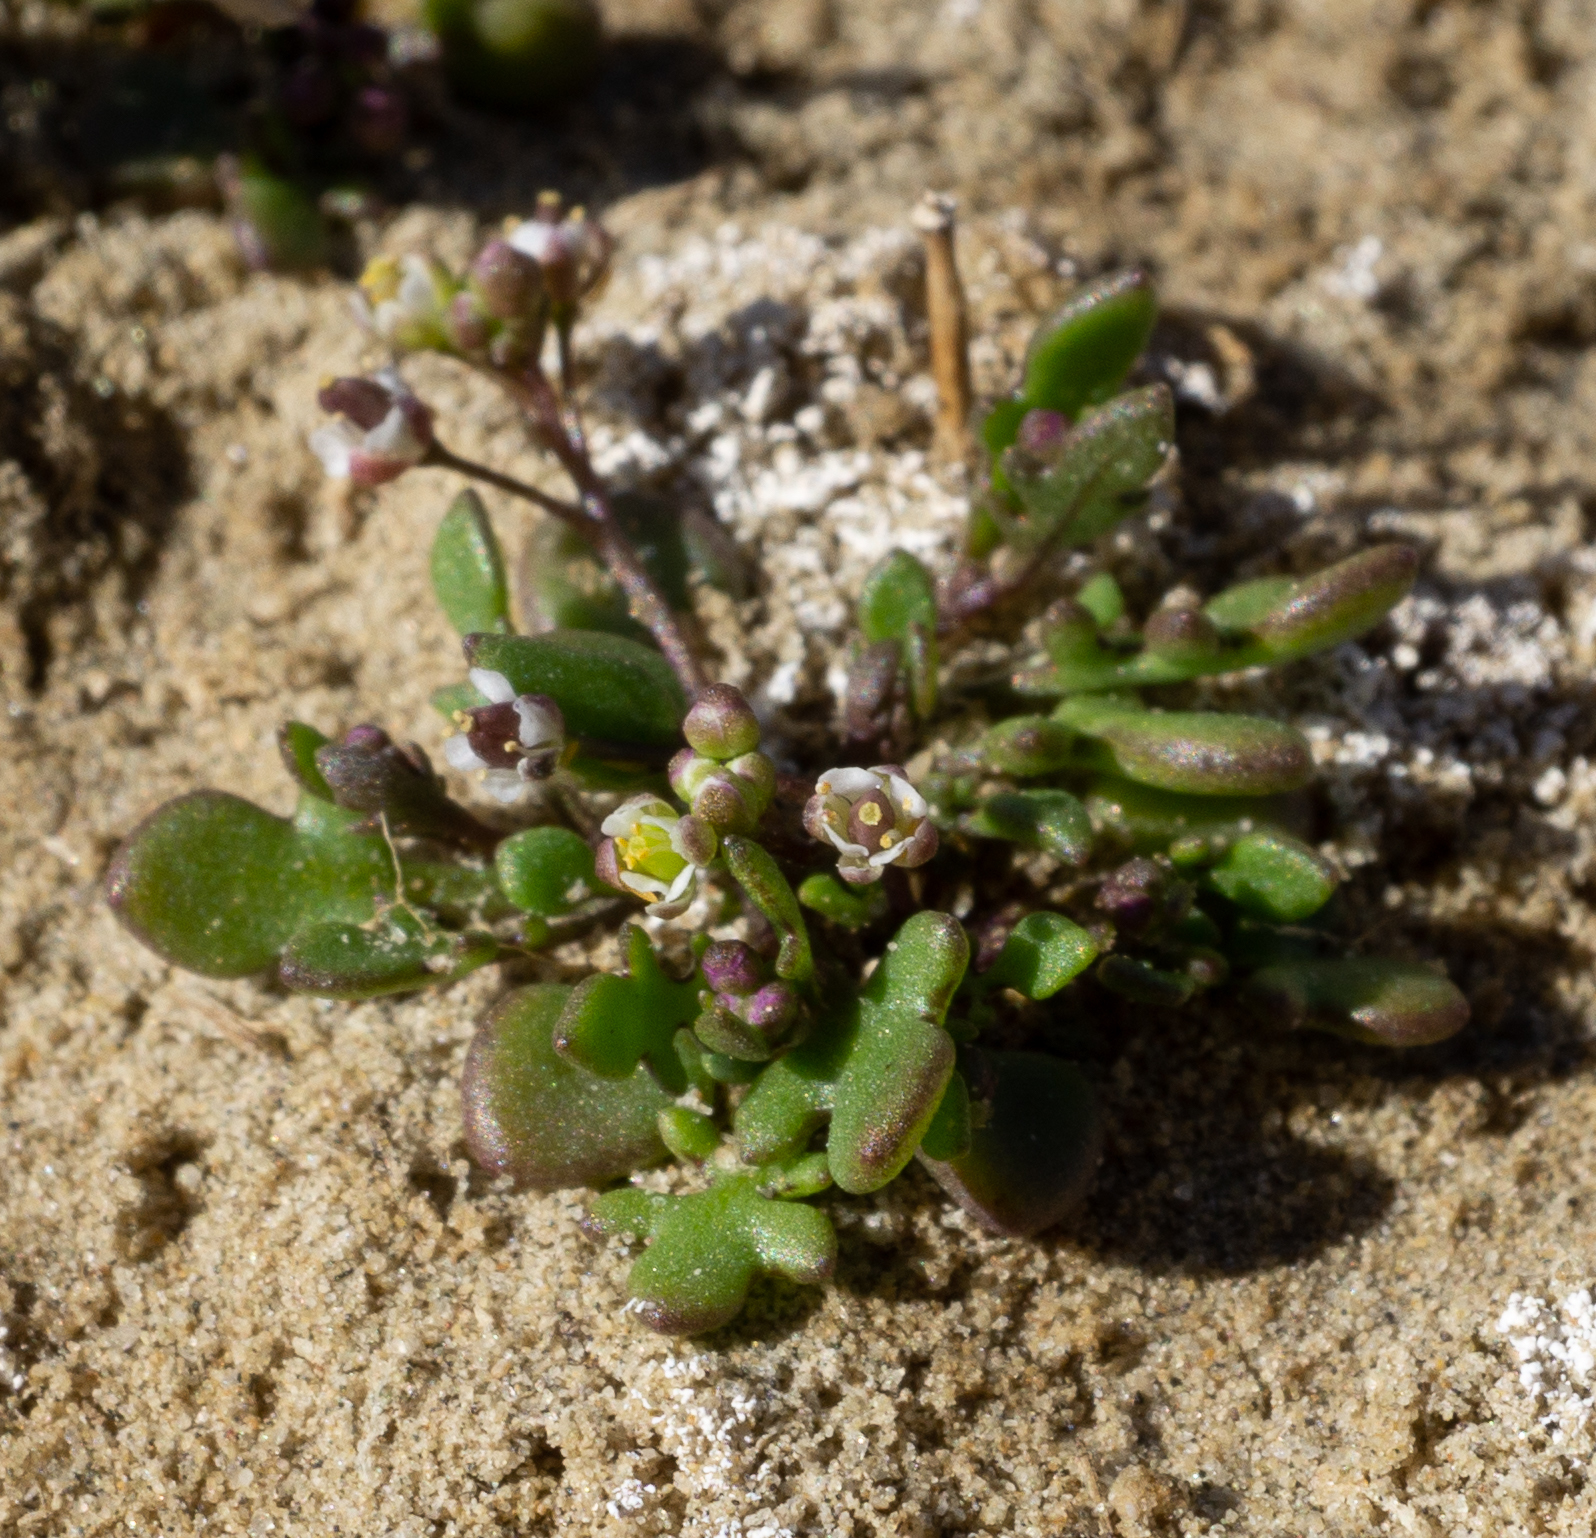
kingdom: Plantae
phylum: Tracheophyta
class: Magnoliopsida
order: Brassicales
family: Brassicaceae
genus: Hornungia
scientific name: Hornungia procumbens
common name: Oval purse
